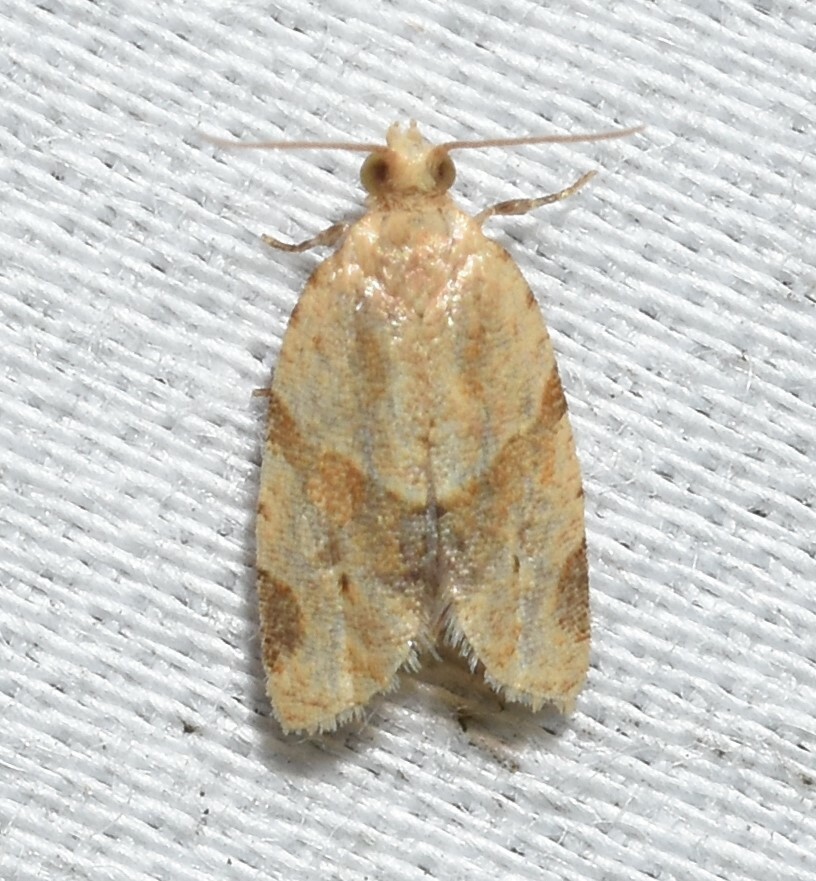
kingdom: Animalia
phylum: Arthropoda
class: Insecta
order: Lepidoptera
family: Tortricidae
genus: Clepsis
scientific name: Clepsis peritana
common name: Garden tortrix
